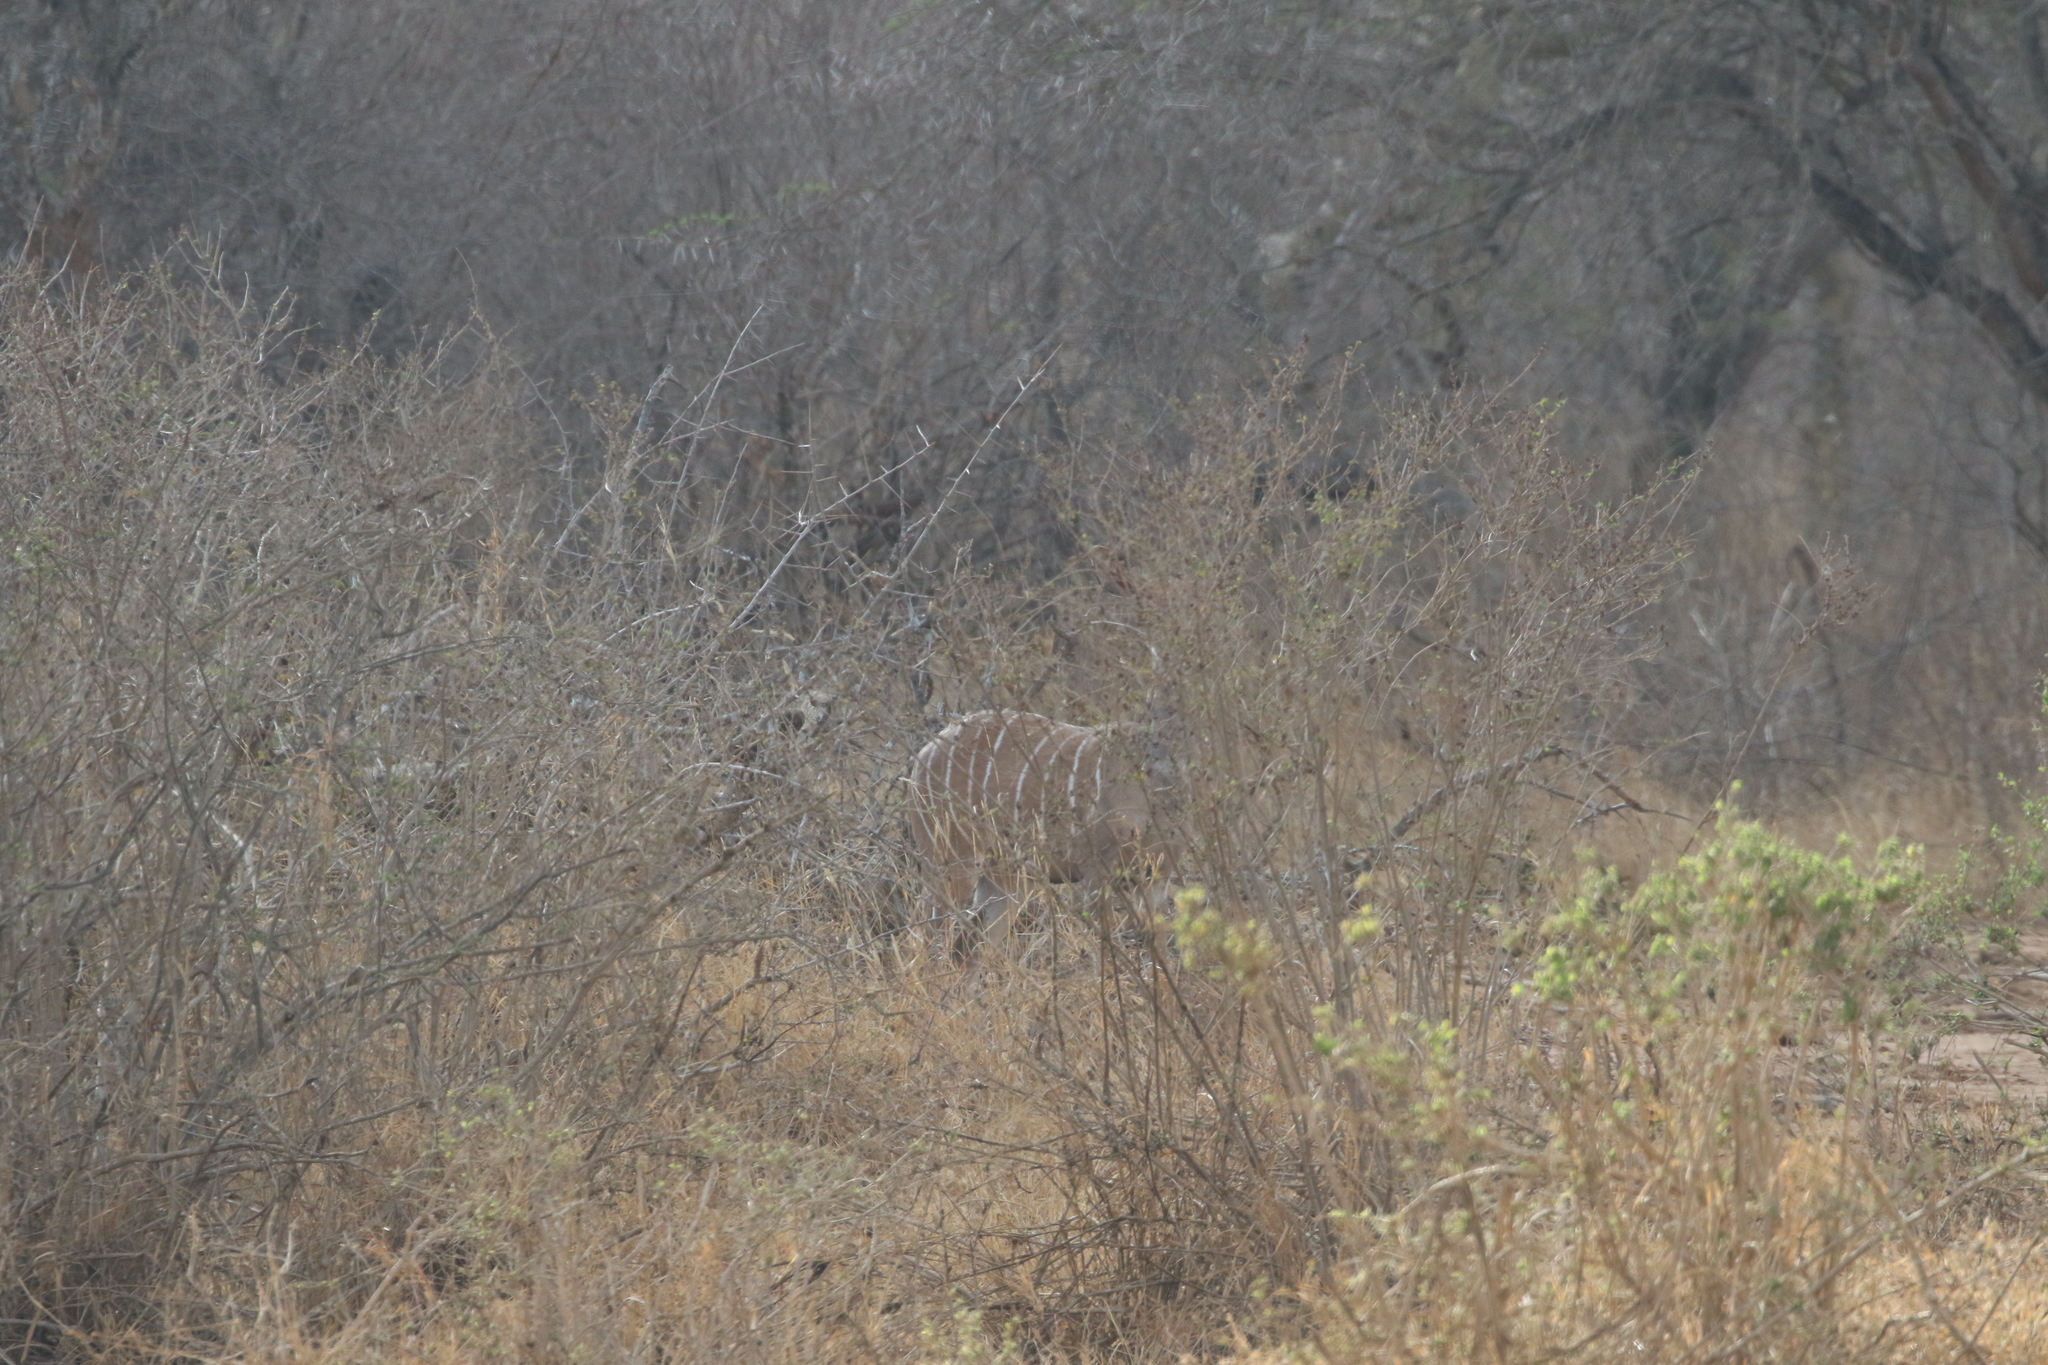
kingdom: Animalia
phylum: Chordata
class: Mammalia
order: Artiodactyla
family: Bovidae
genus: Tragelaphus
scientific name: Tragelaphus imberbis
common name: Lesser kudu
